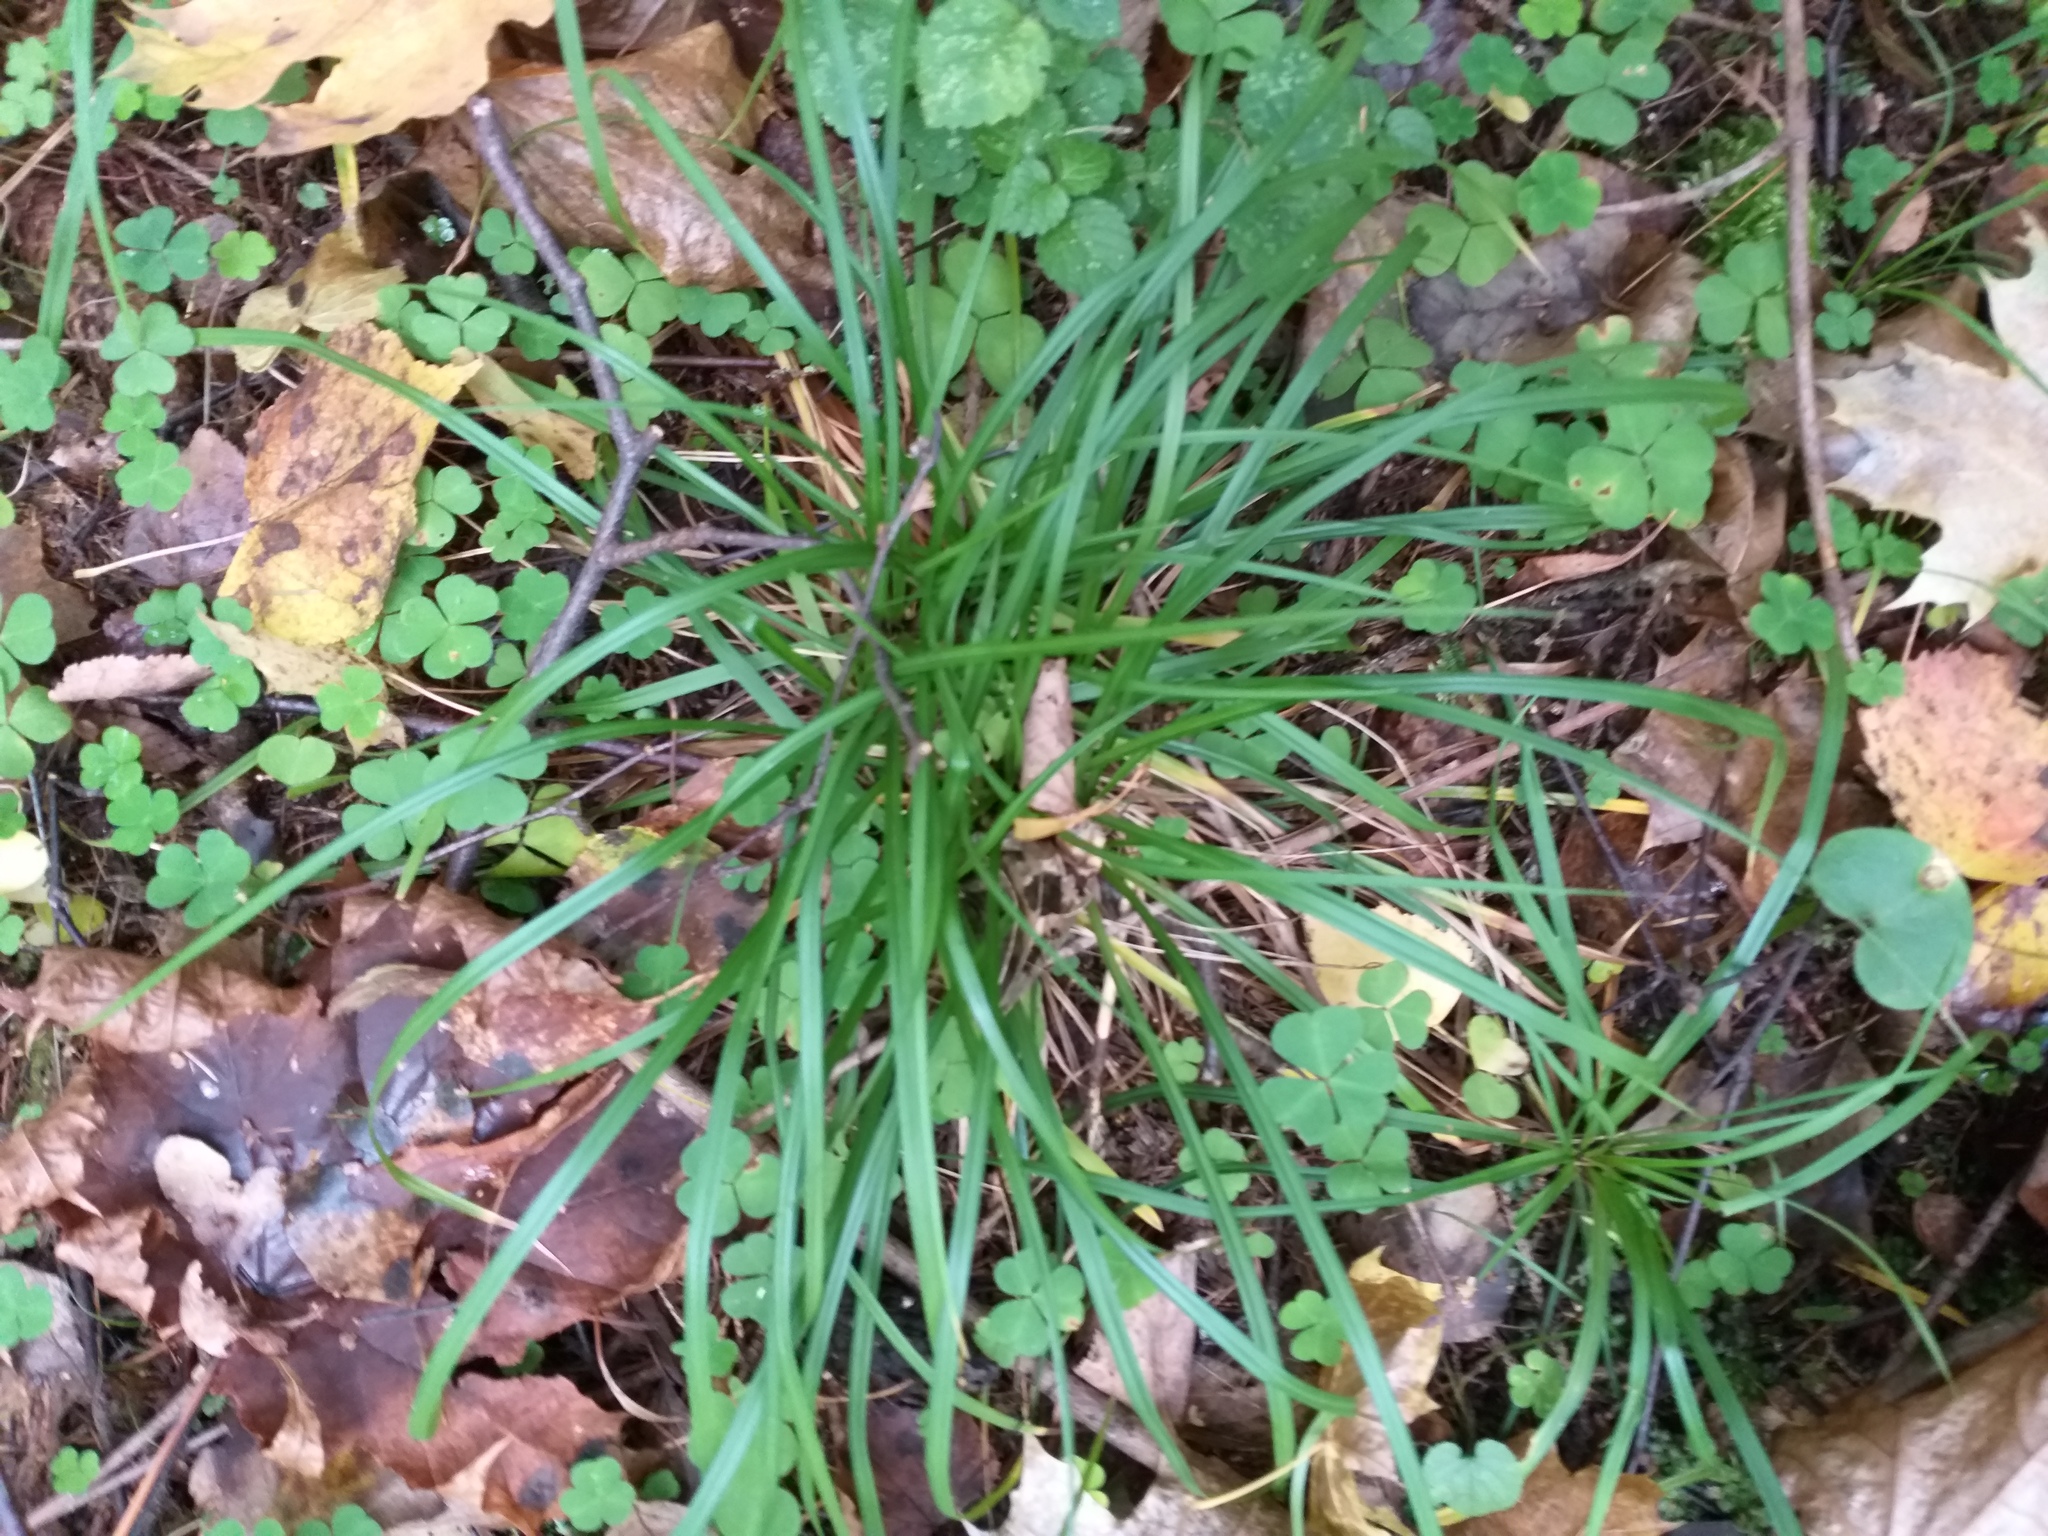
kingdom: Plantae
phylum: Tracheophyta
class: Liliopsida
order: Poales
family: Cyperaceae
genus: Carex
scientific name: Carex digitata
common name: Fingered sedge
